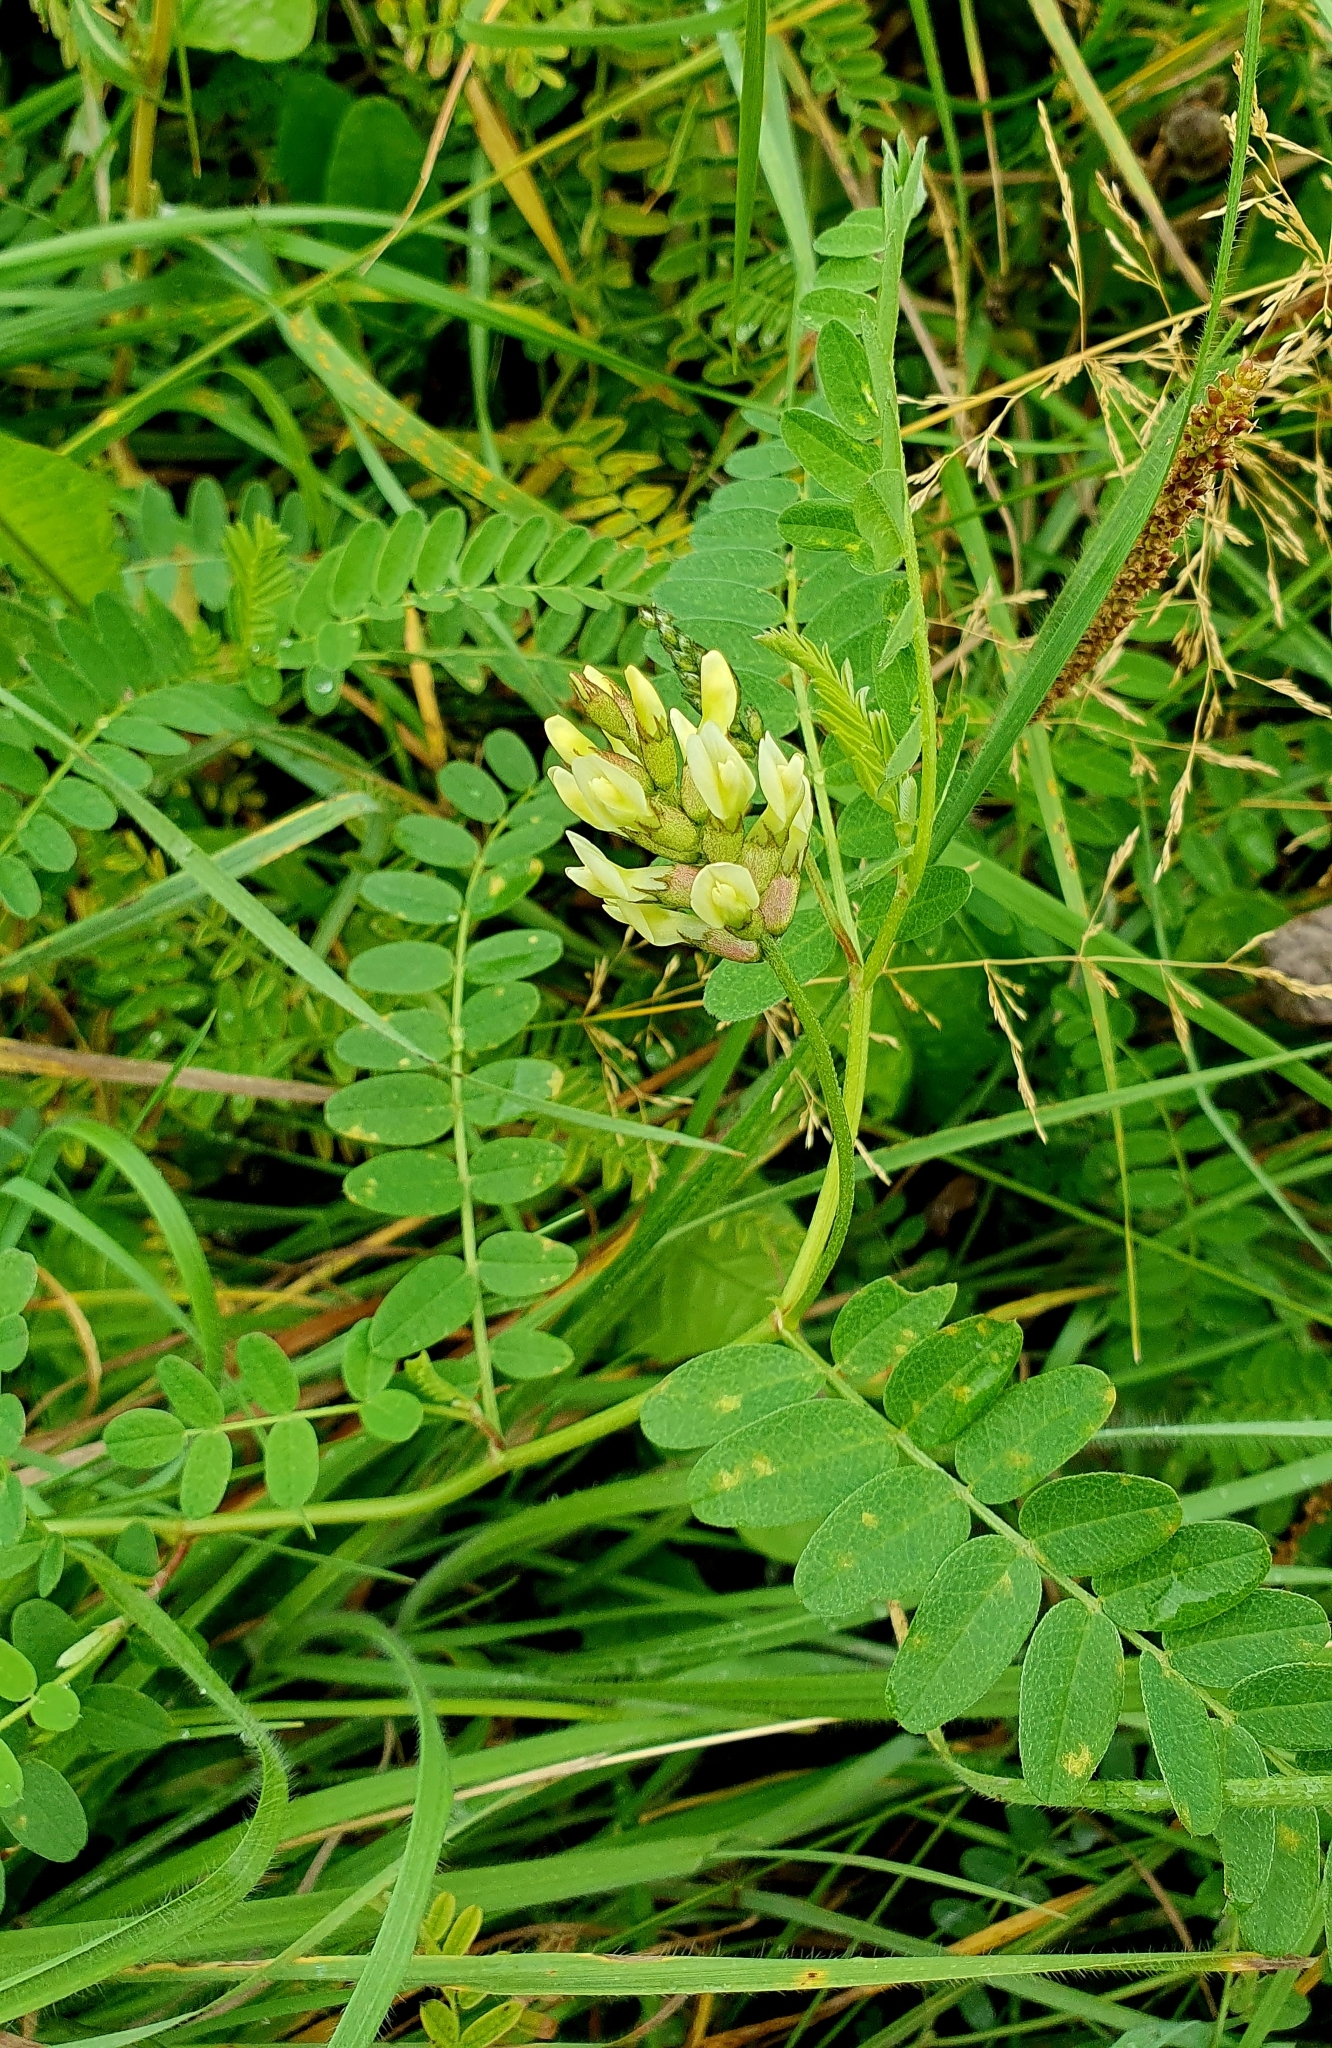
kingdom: Plantae
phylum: Tracheophyta
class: Magnoliopsida
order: Fabales
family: Fabaceae
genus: Astragalus
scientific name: Astragalus cicer
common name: Chick-pea milk-vetch
